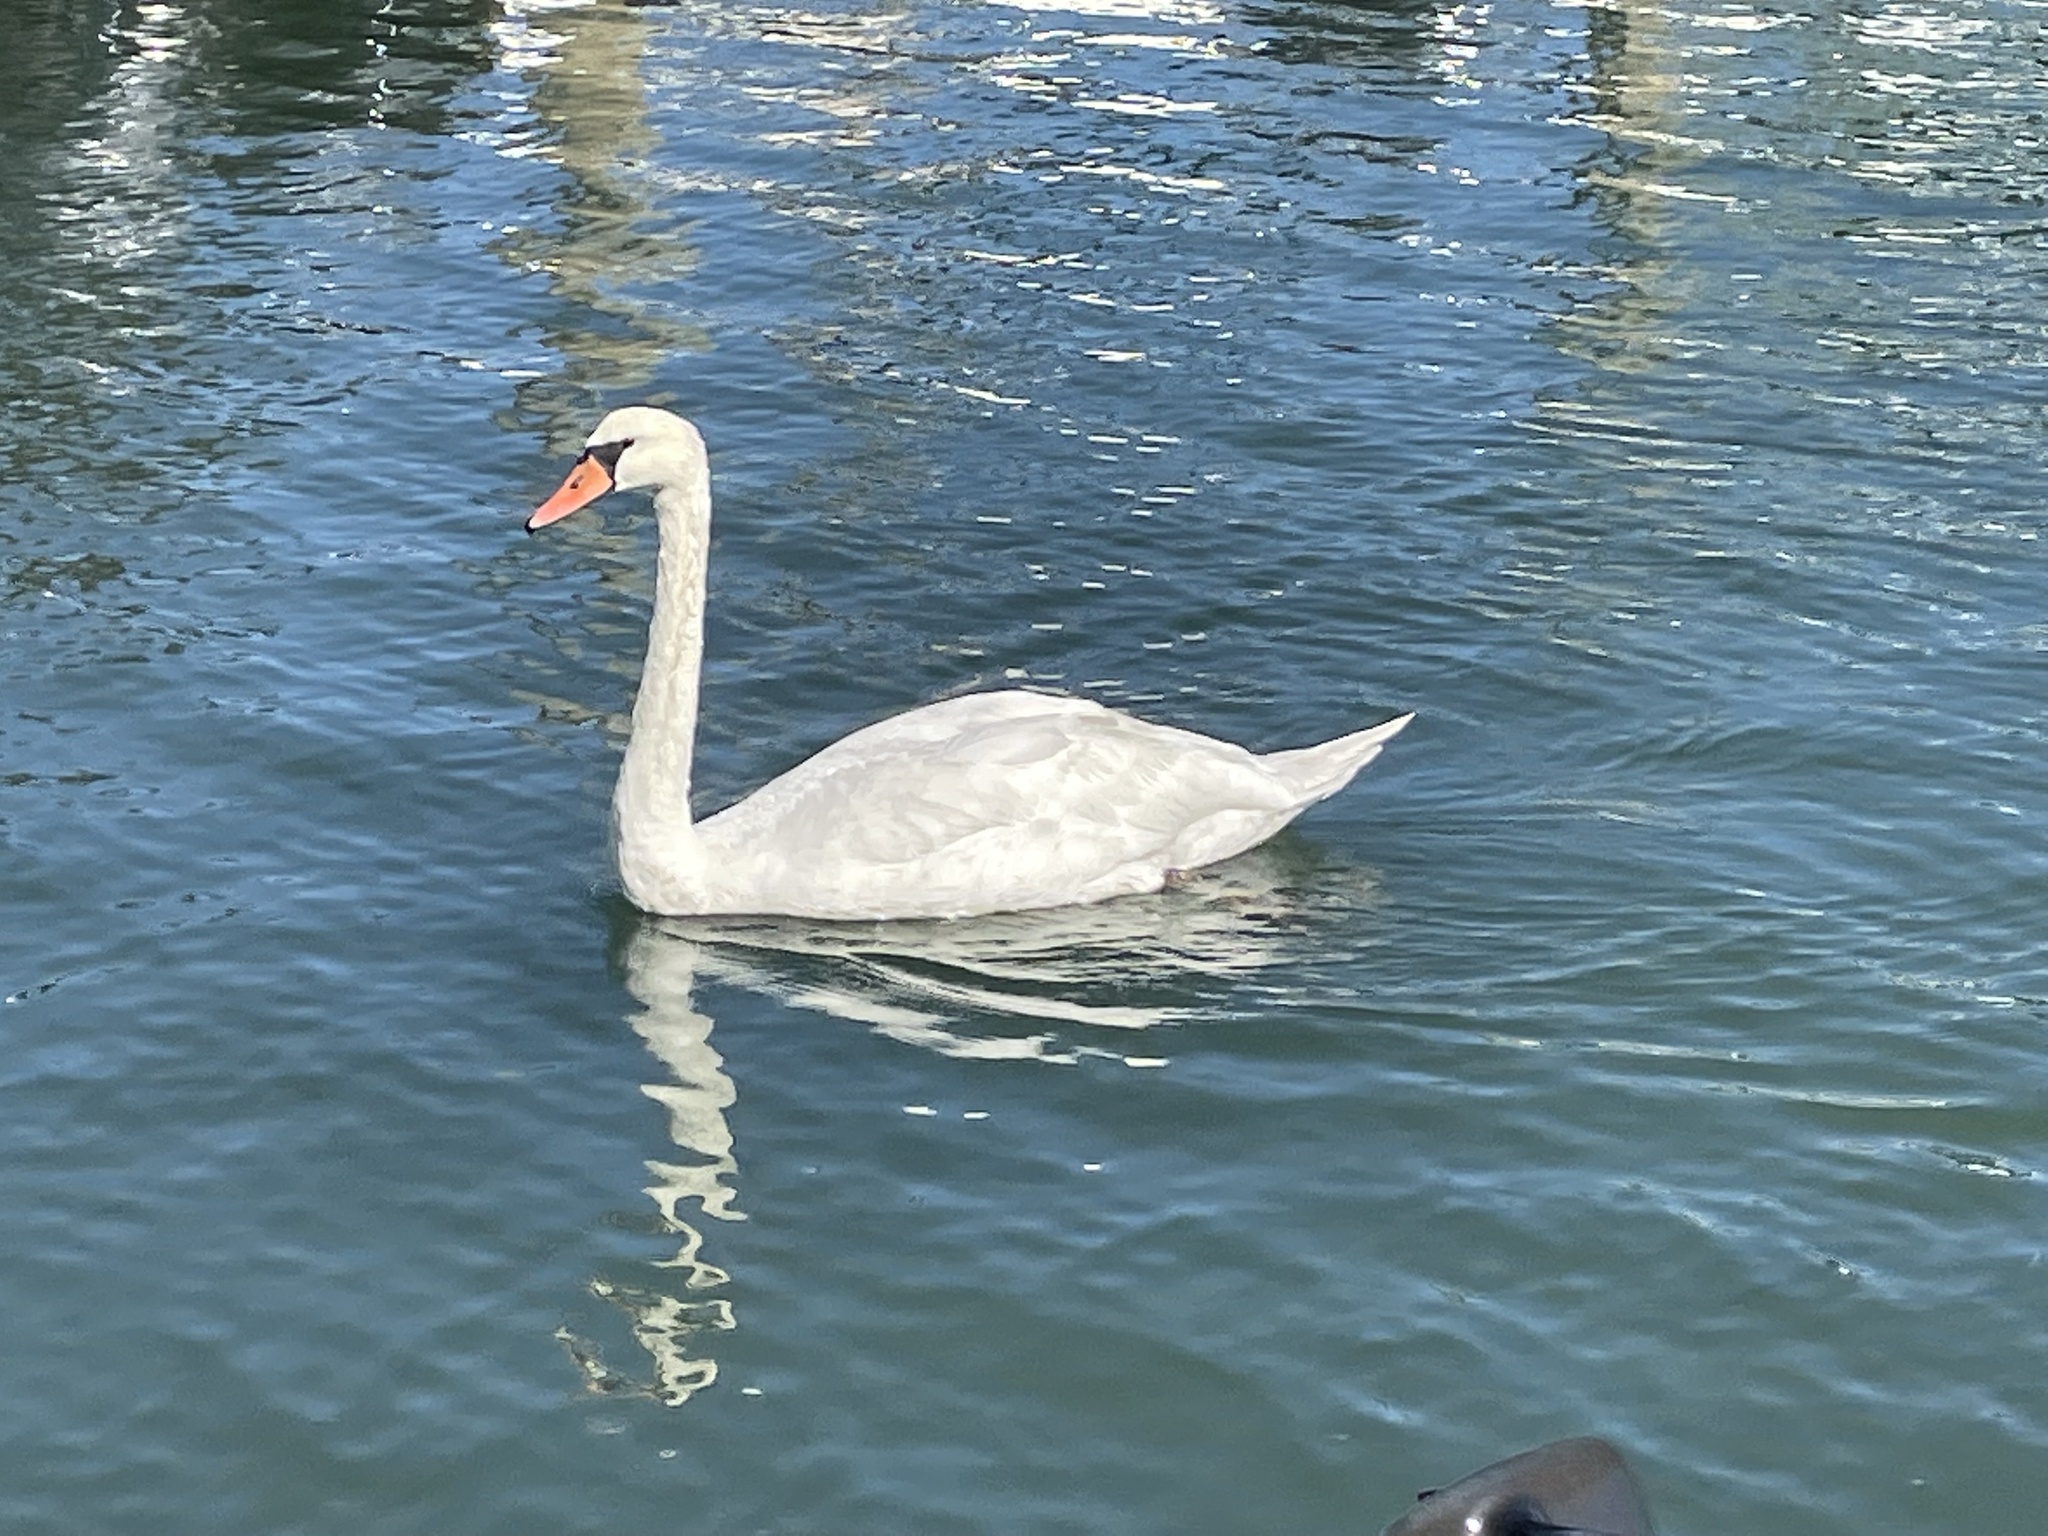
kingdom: Animalia
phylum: Chordata
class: Aves
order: Anseriformes
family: Anatidae
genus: Cygnus
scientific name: Cygnus olor
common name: Mute swan
